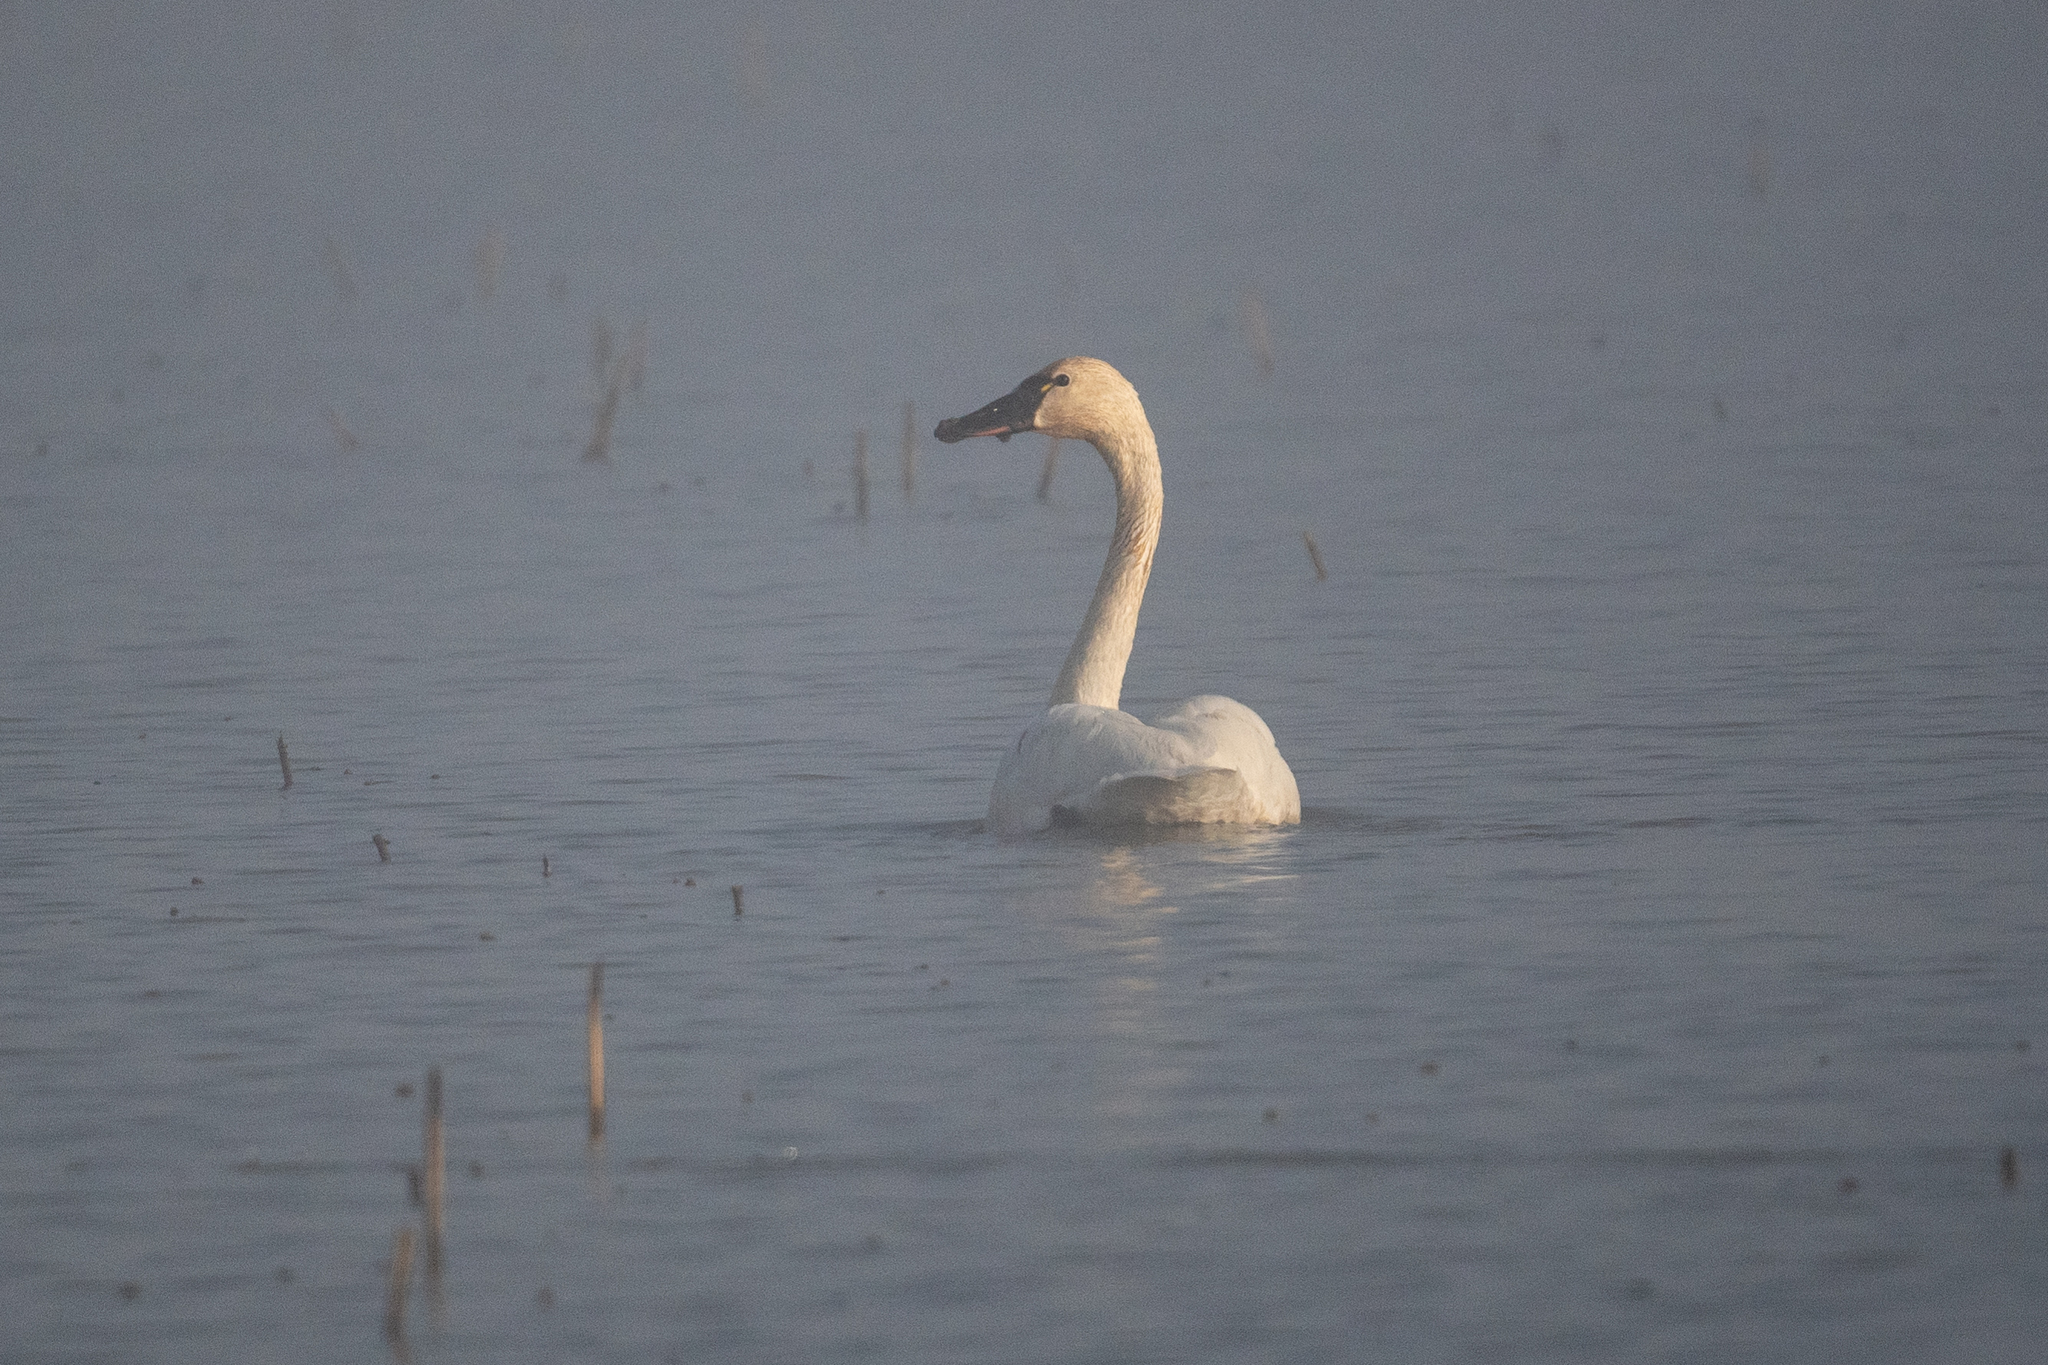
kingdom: Animalia
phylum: Chordata
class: Aves
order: Anseriformes
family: Anatidae
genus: Cygnus
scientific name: Cygnus columbianus
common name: Tundra swan
